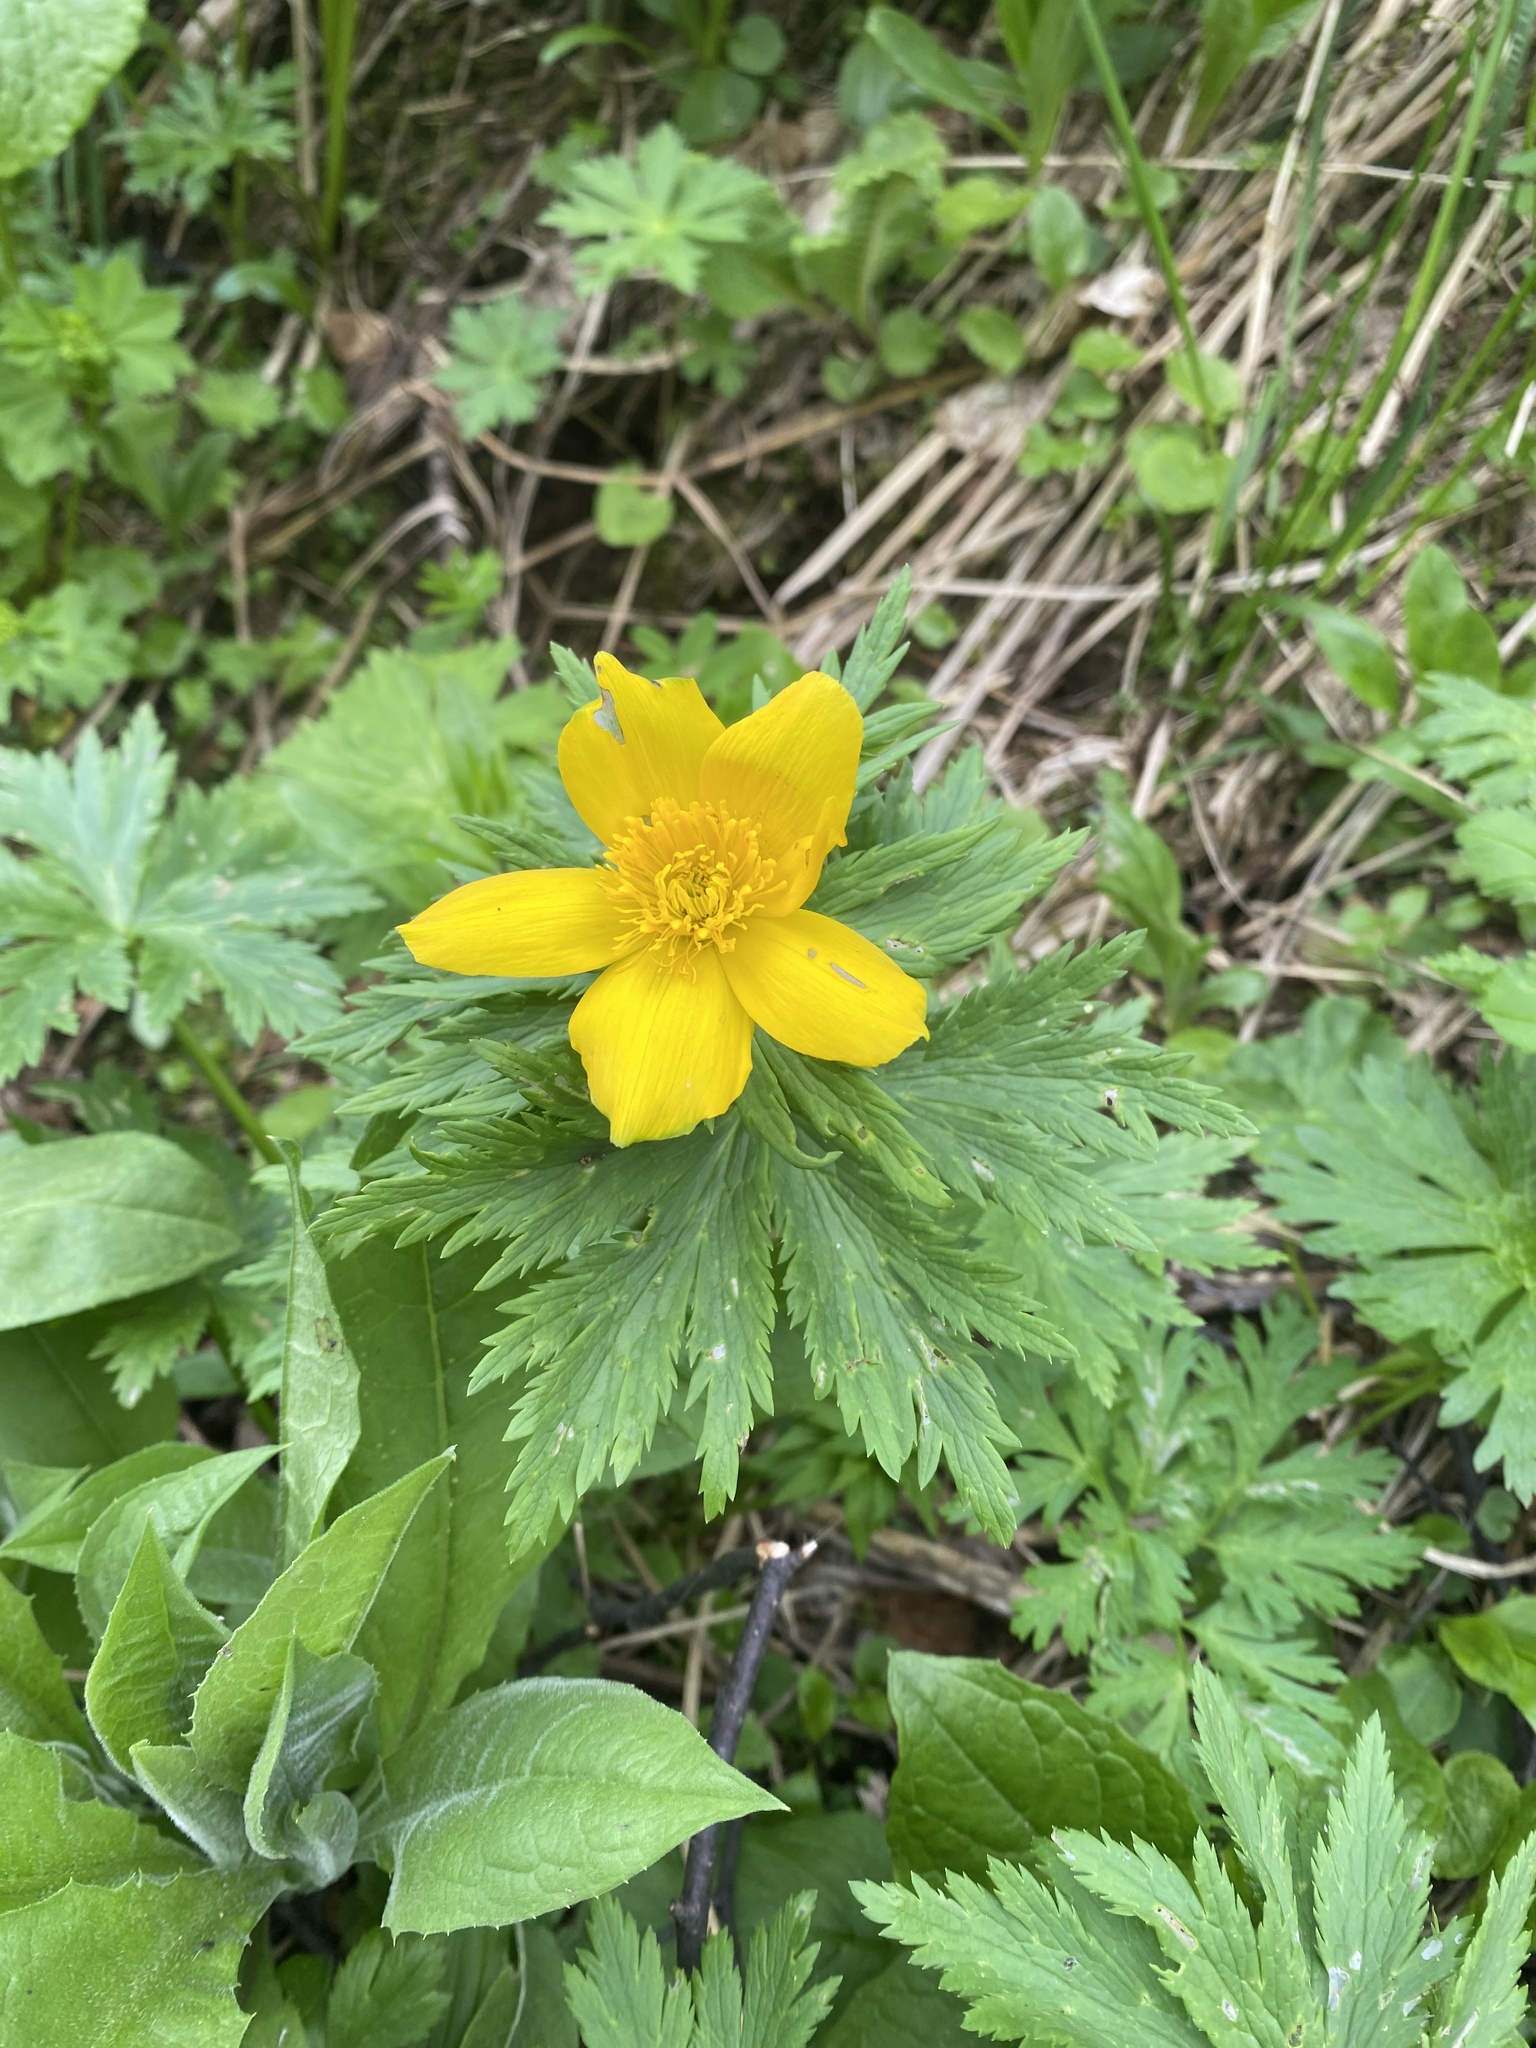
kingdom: Plantae
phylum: Tracheophyta
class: Magnoliopsida
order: Ranunculales
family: Ranunculaceae
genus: Trollius
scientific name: Trollius ranunculinus
